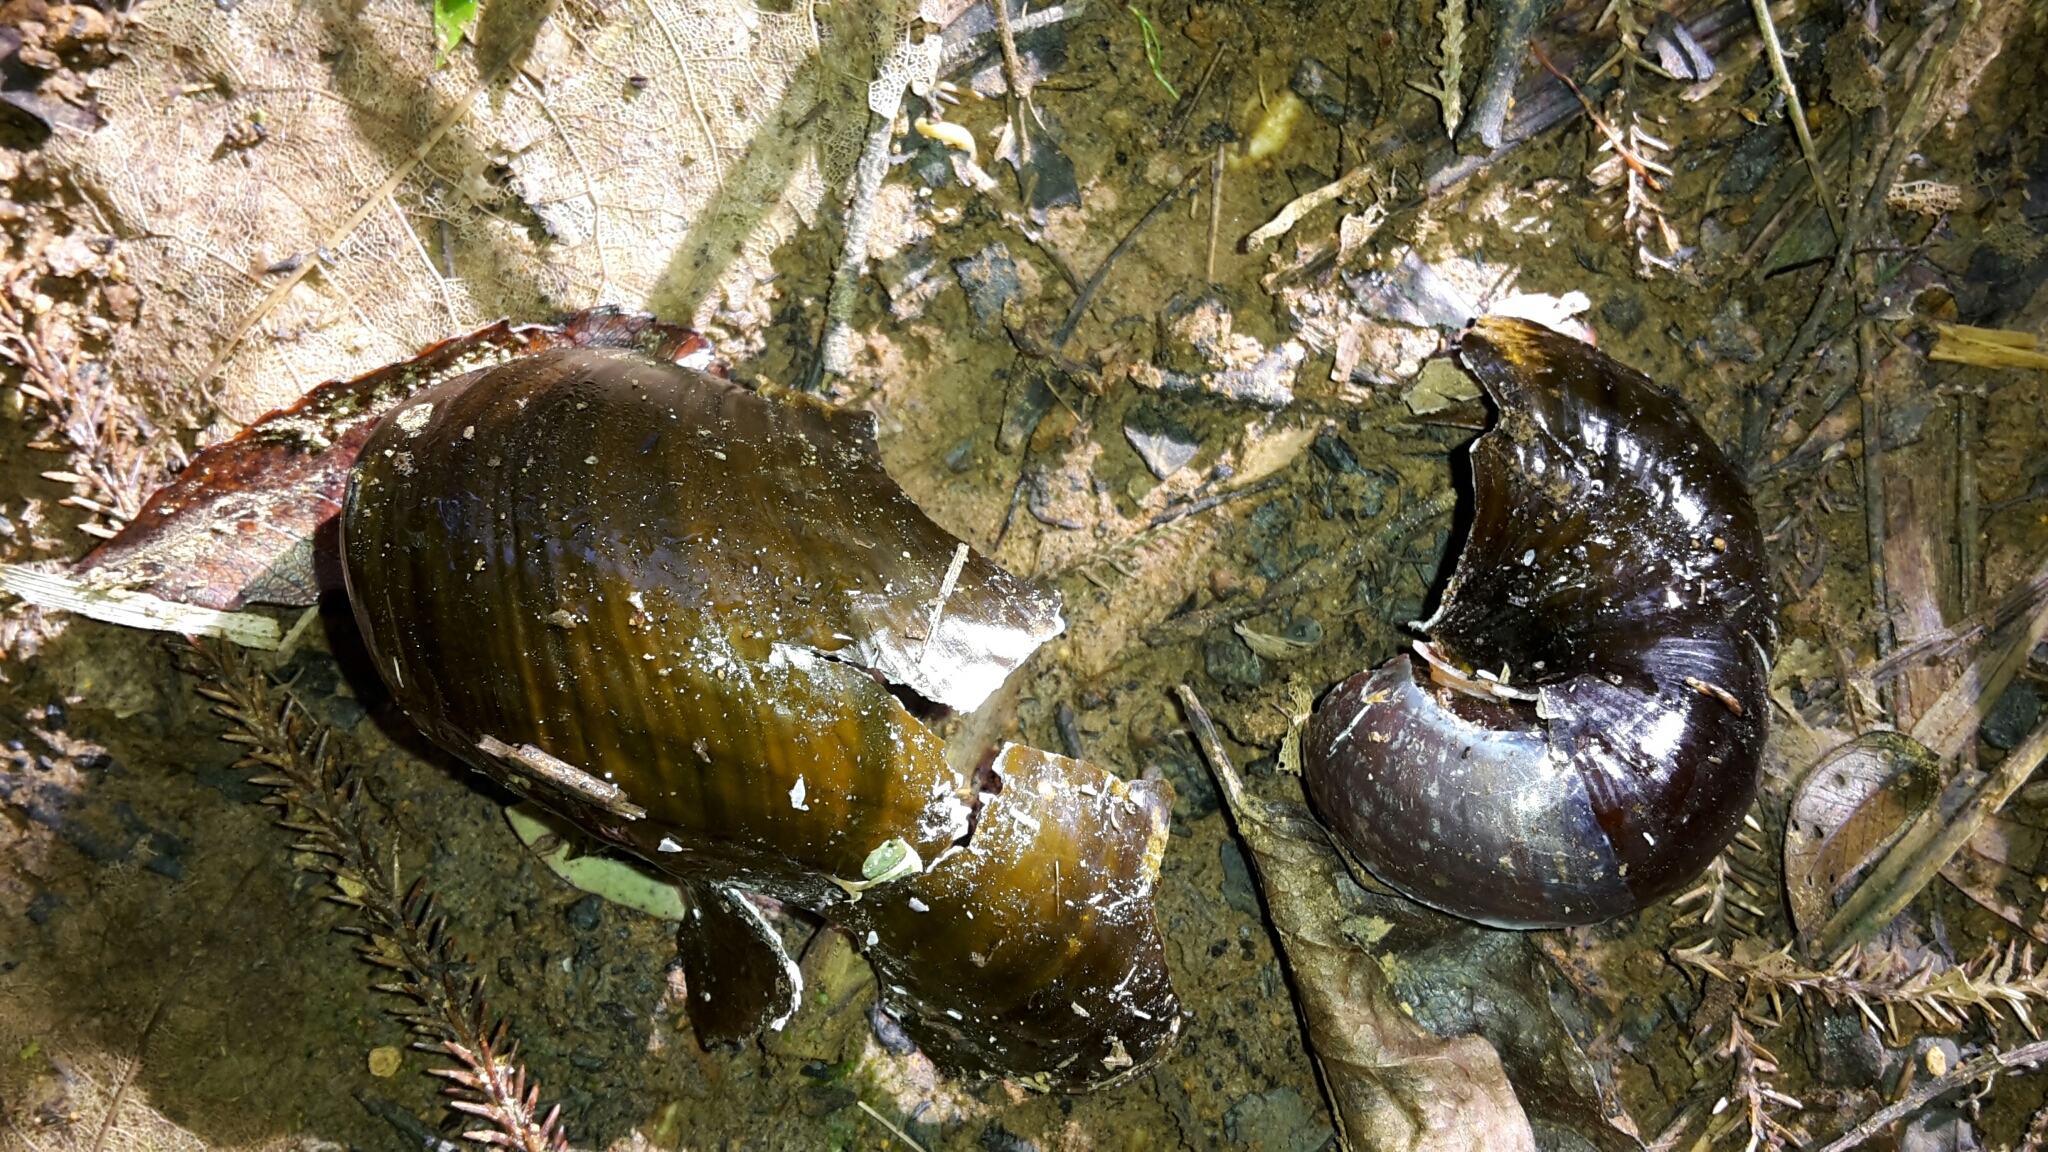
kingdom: Animalia
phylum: Mollusca
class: Gastropoda
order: Stylommatophora
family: Rhytididae
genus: Paryphanta
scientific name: Paryphanta busbyi
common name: Kauri snail
